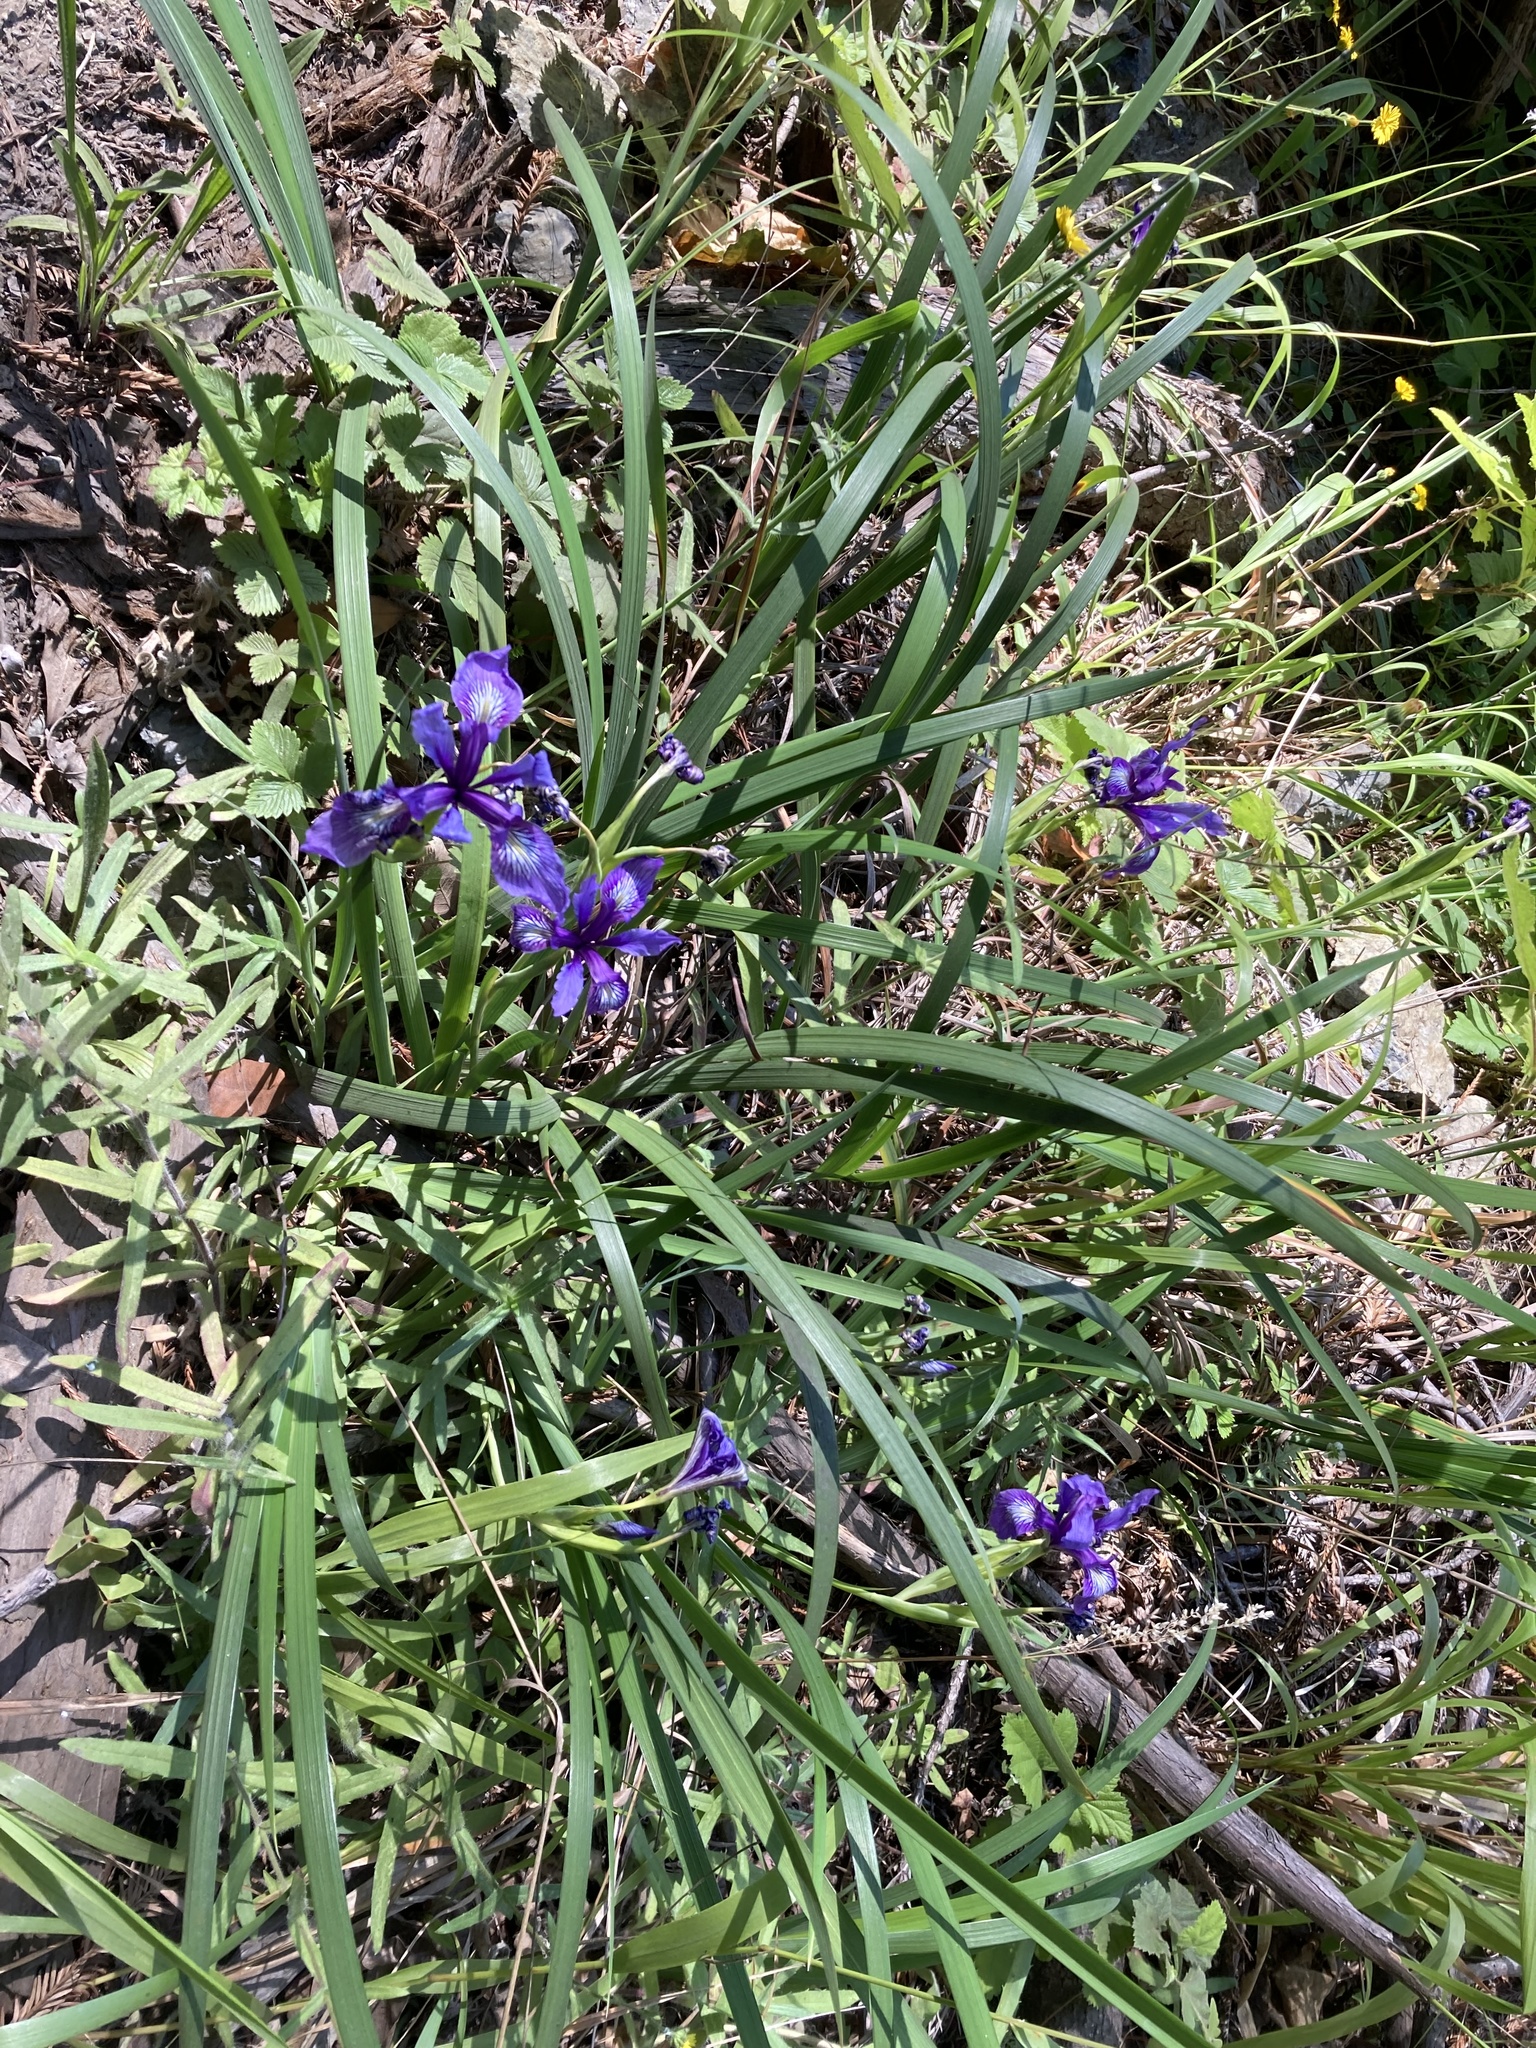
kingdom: Plantae
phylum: Tracheophyta
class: Liliopsida
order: Asparagales
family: Iridaceae
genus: Iris
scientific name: Iris douglasiana
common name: Marin iris
